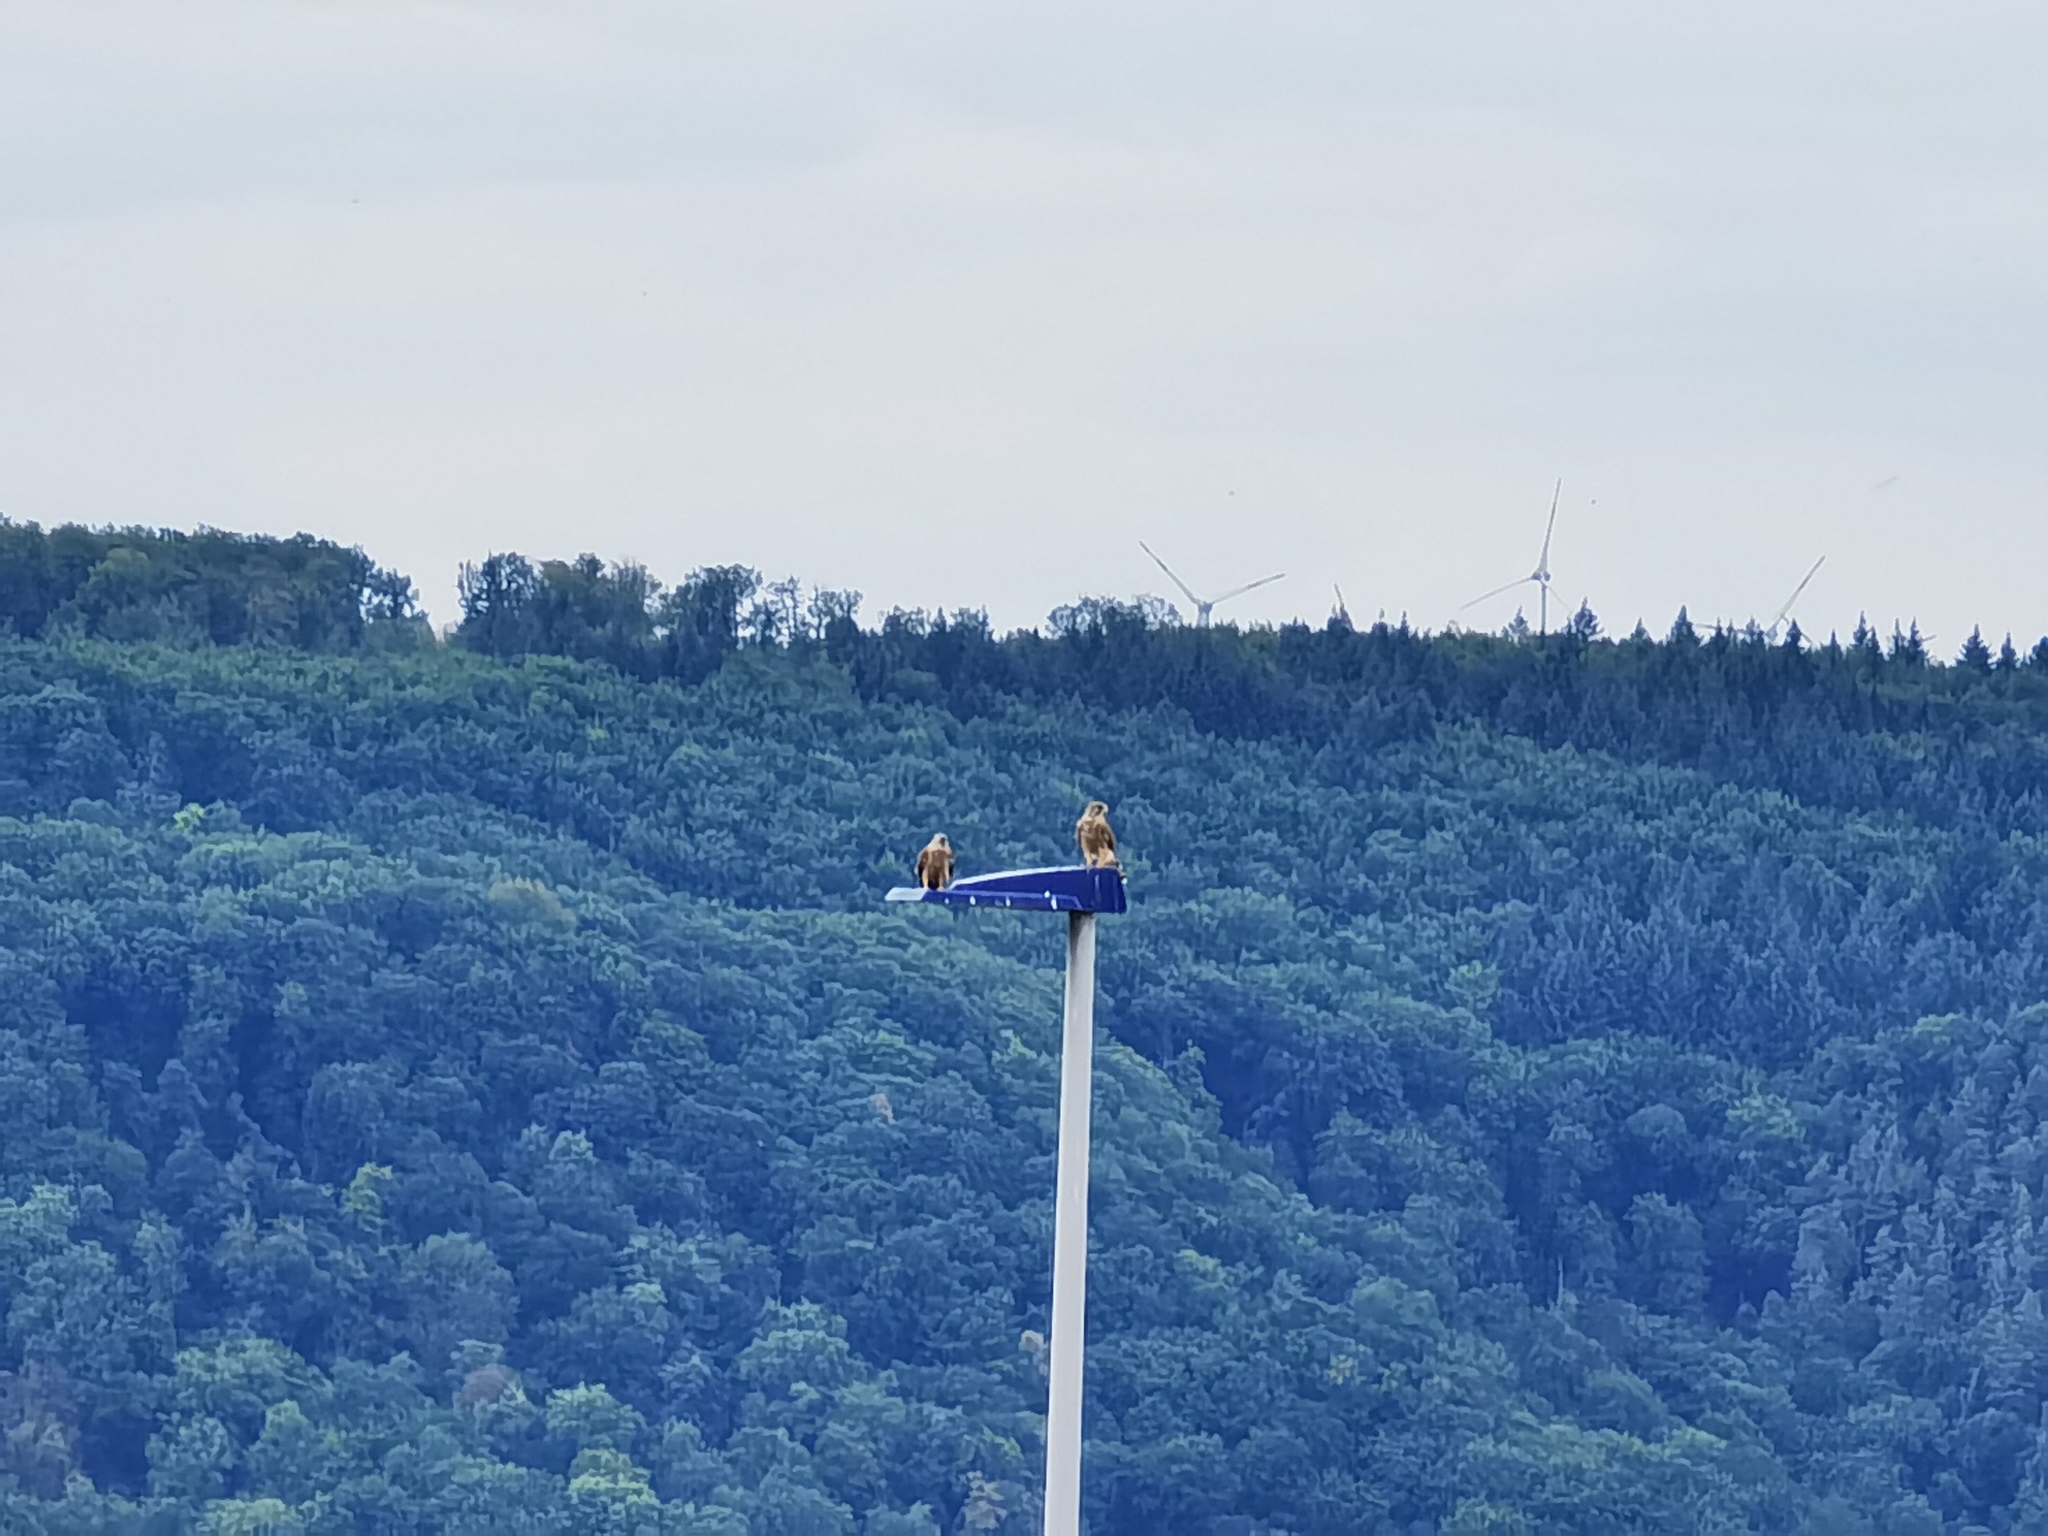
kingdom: Animalia
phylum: Chordata
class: Aves
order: Falconiformes
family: Falconidae
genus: Falco
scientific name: Falco tinnunculus
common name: Common kestrel
